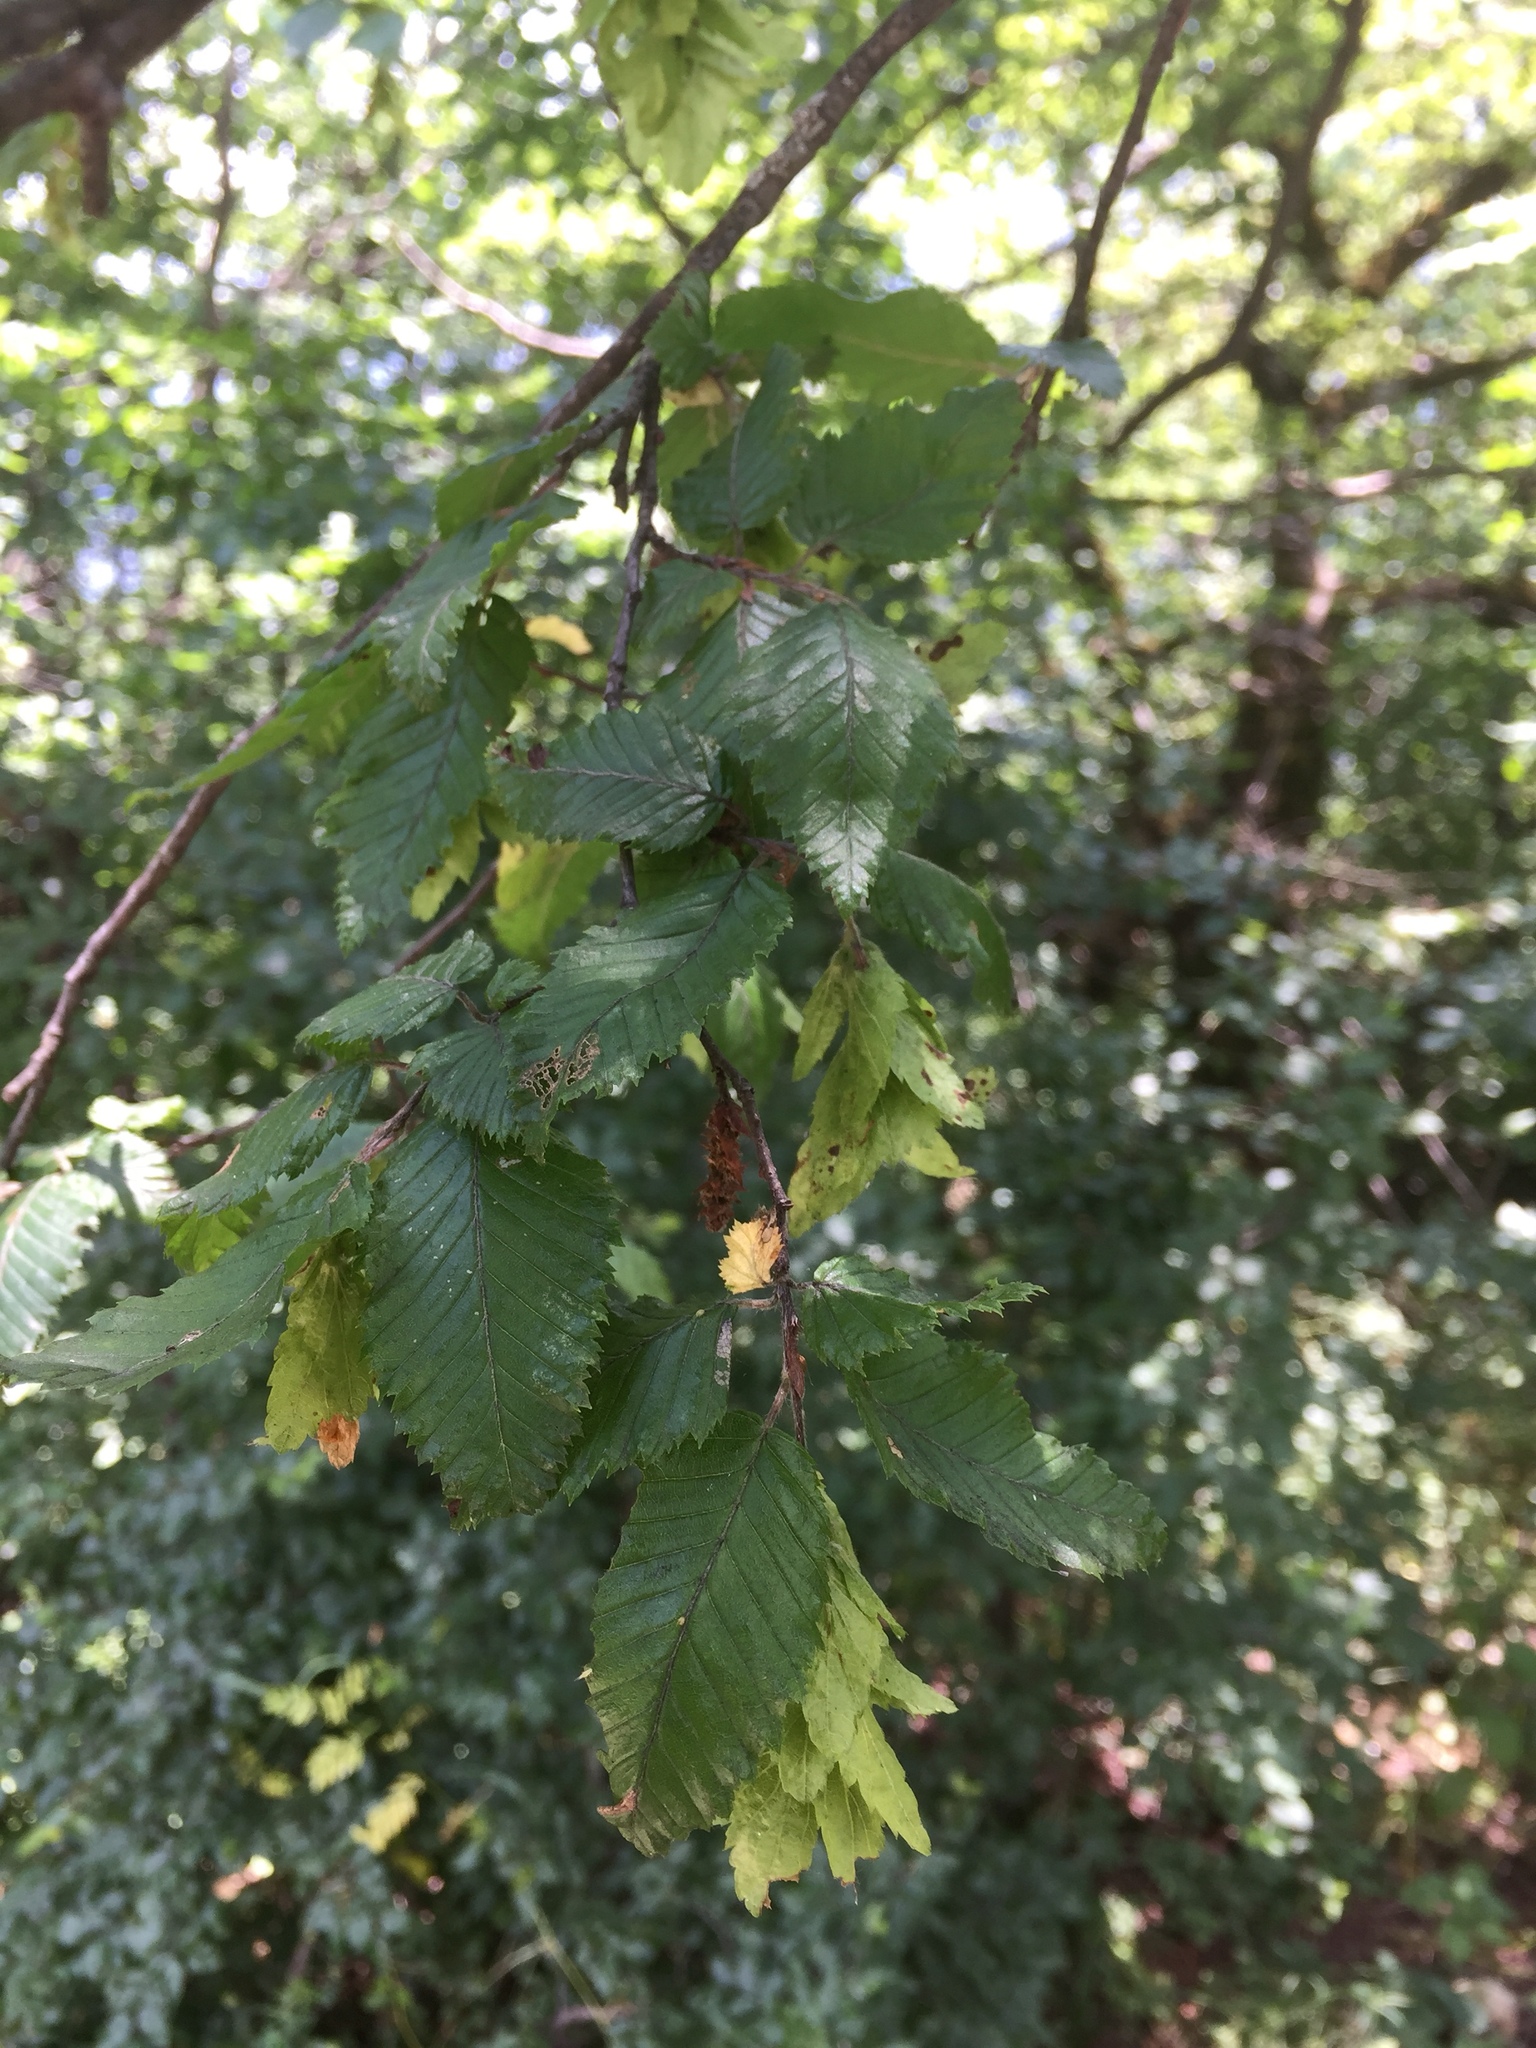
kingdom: Plantae
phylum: Tracheophyta
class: Magnoliopsida
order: Fagales
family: Betulaceae
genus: Carpinus
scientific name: Carpinus betulus
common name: Hornbeam
